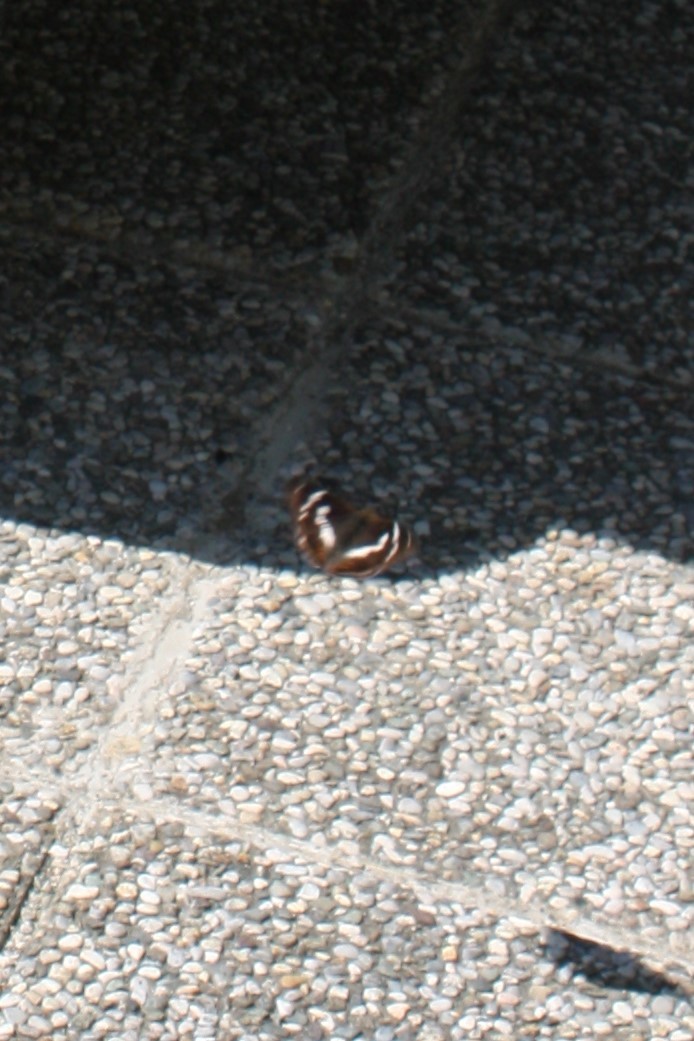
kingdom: Animalia
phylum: Arthropoda
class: Insecta
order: Lepidoptera
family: Nymphalidae
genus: Apatura
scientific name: Apatura iris
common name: Purple emperor
